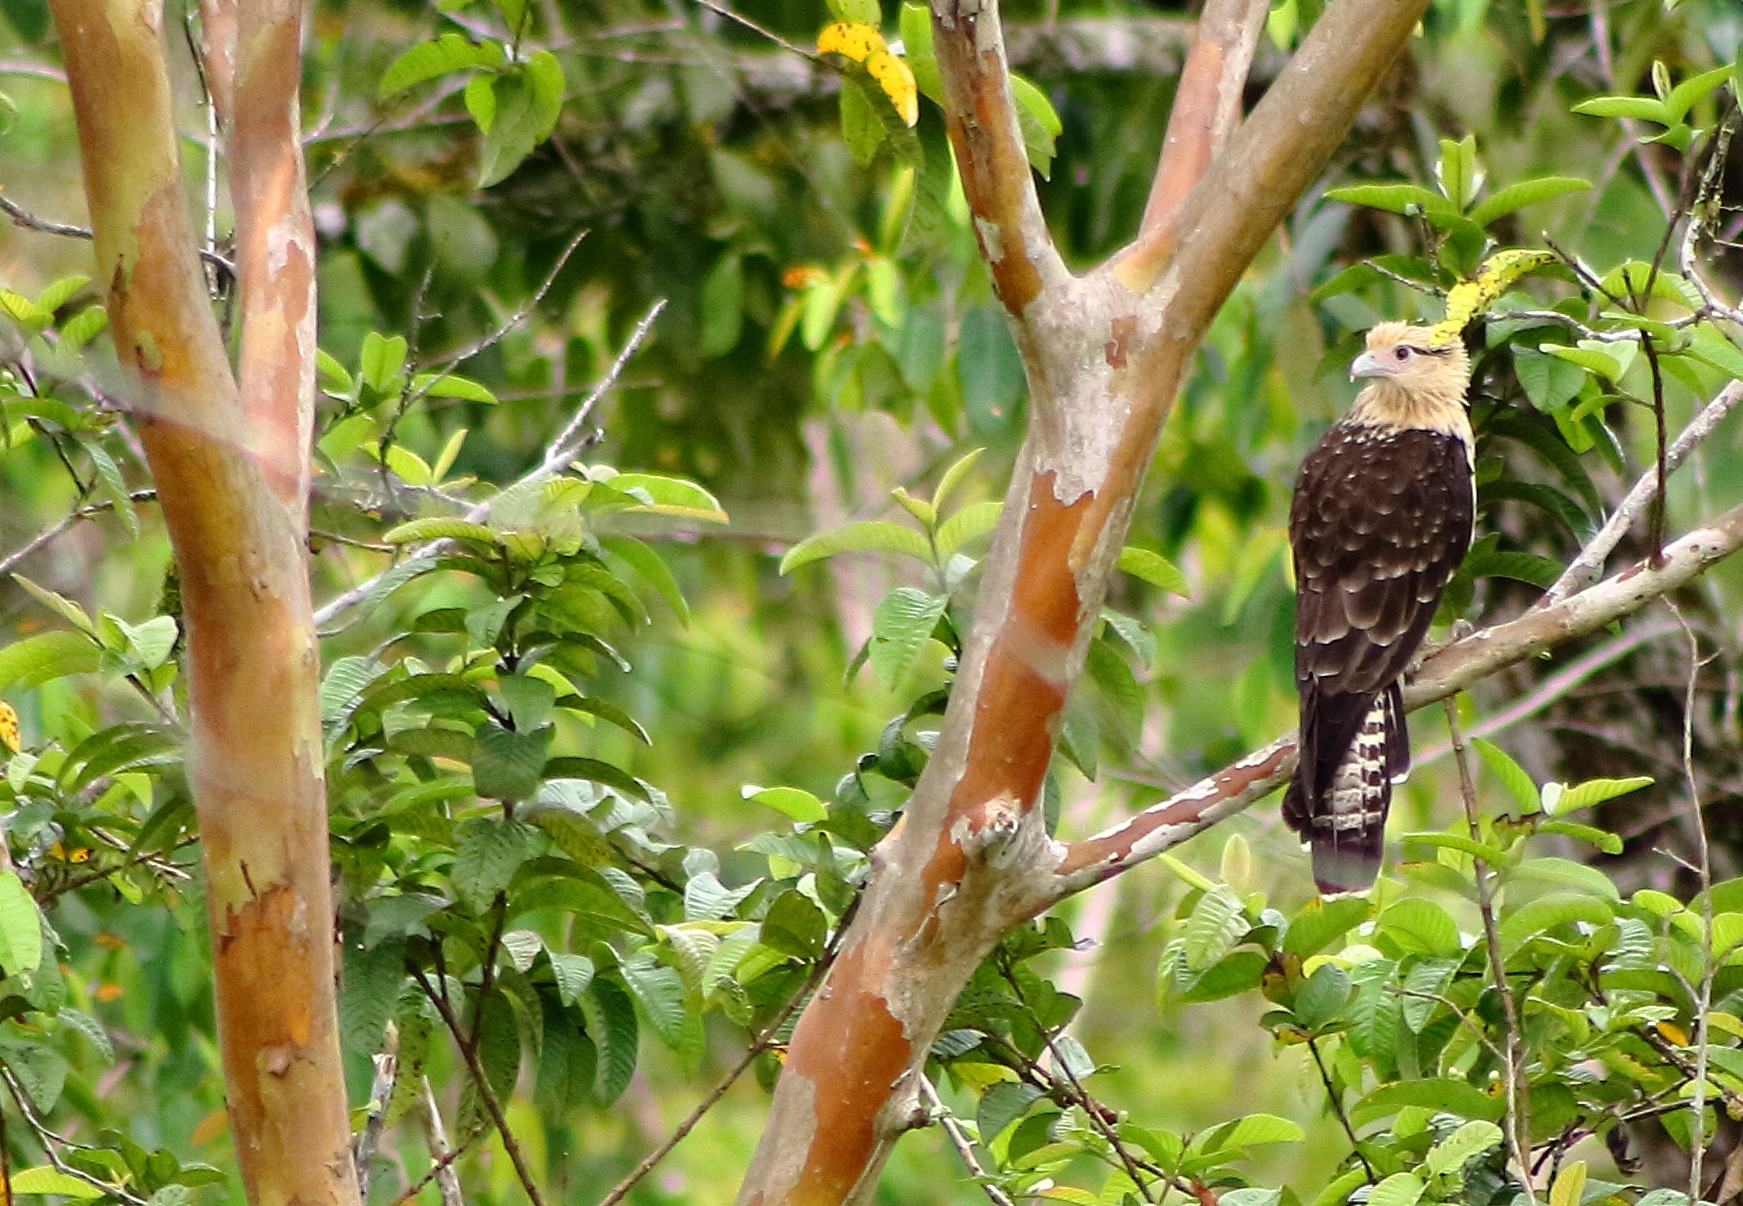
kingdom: Animalia
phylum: Chordata
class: Aves
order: Falconiformes
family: Falconidae
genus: Daptrius
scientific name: Daptrius
